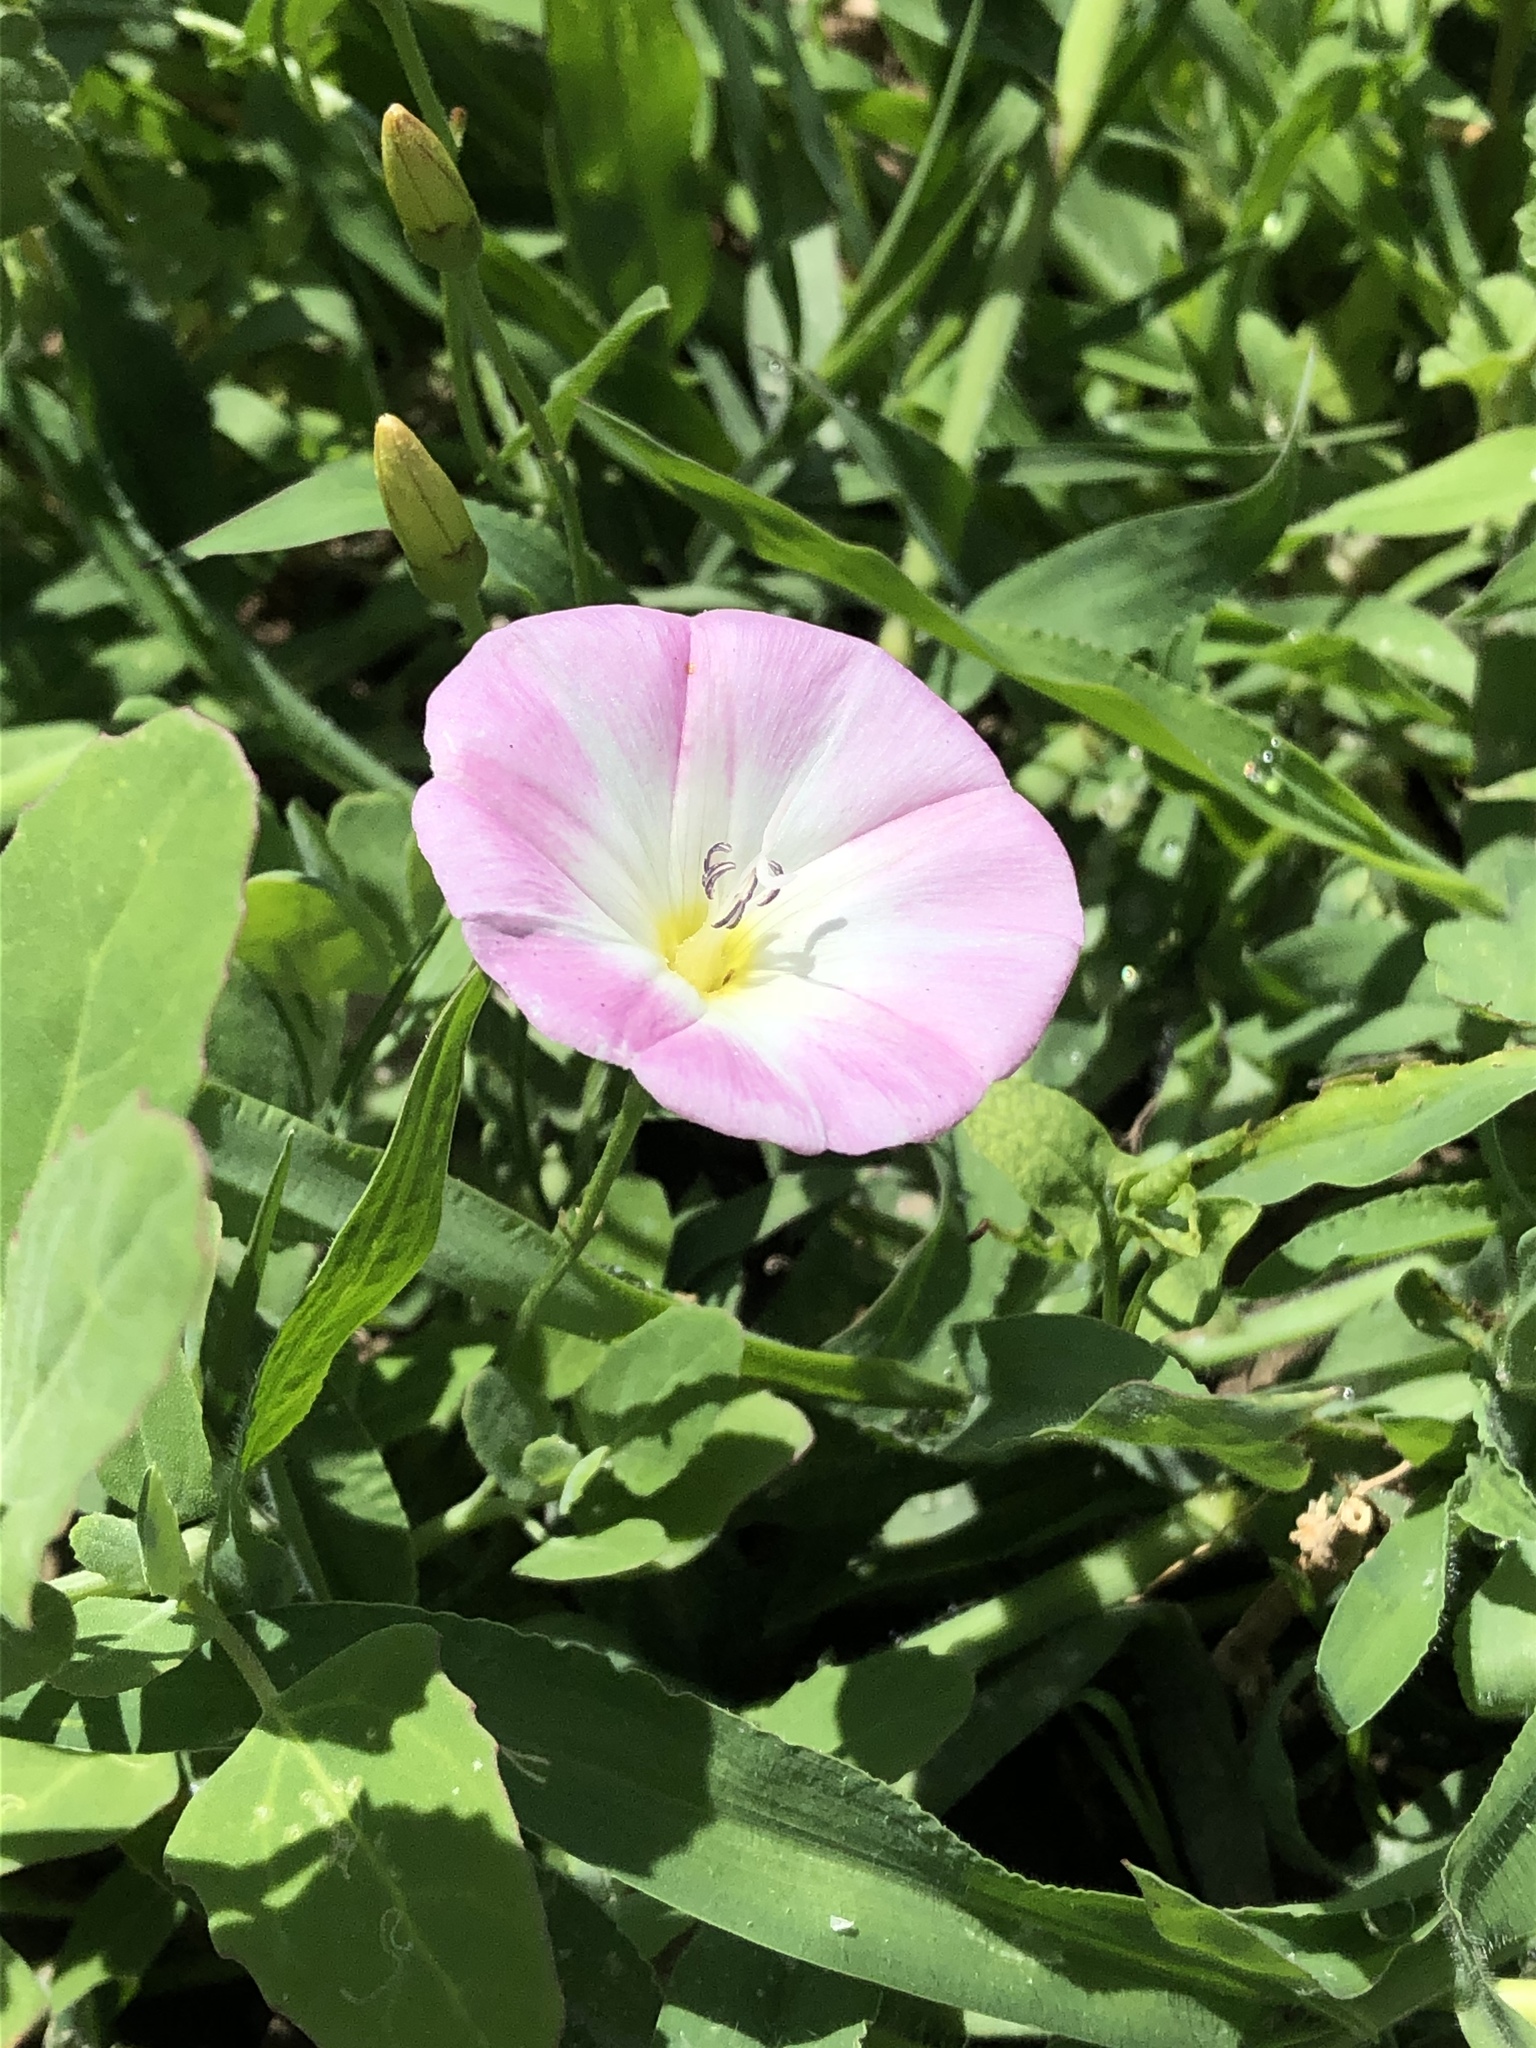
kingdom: Plantae
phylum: Tracheophyta
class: Magnoliopsida
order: Solanales
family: Convolvulaceae
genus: Convolvulus
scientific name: Convolvulus arvensis
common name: Field bindweed
